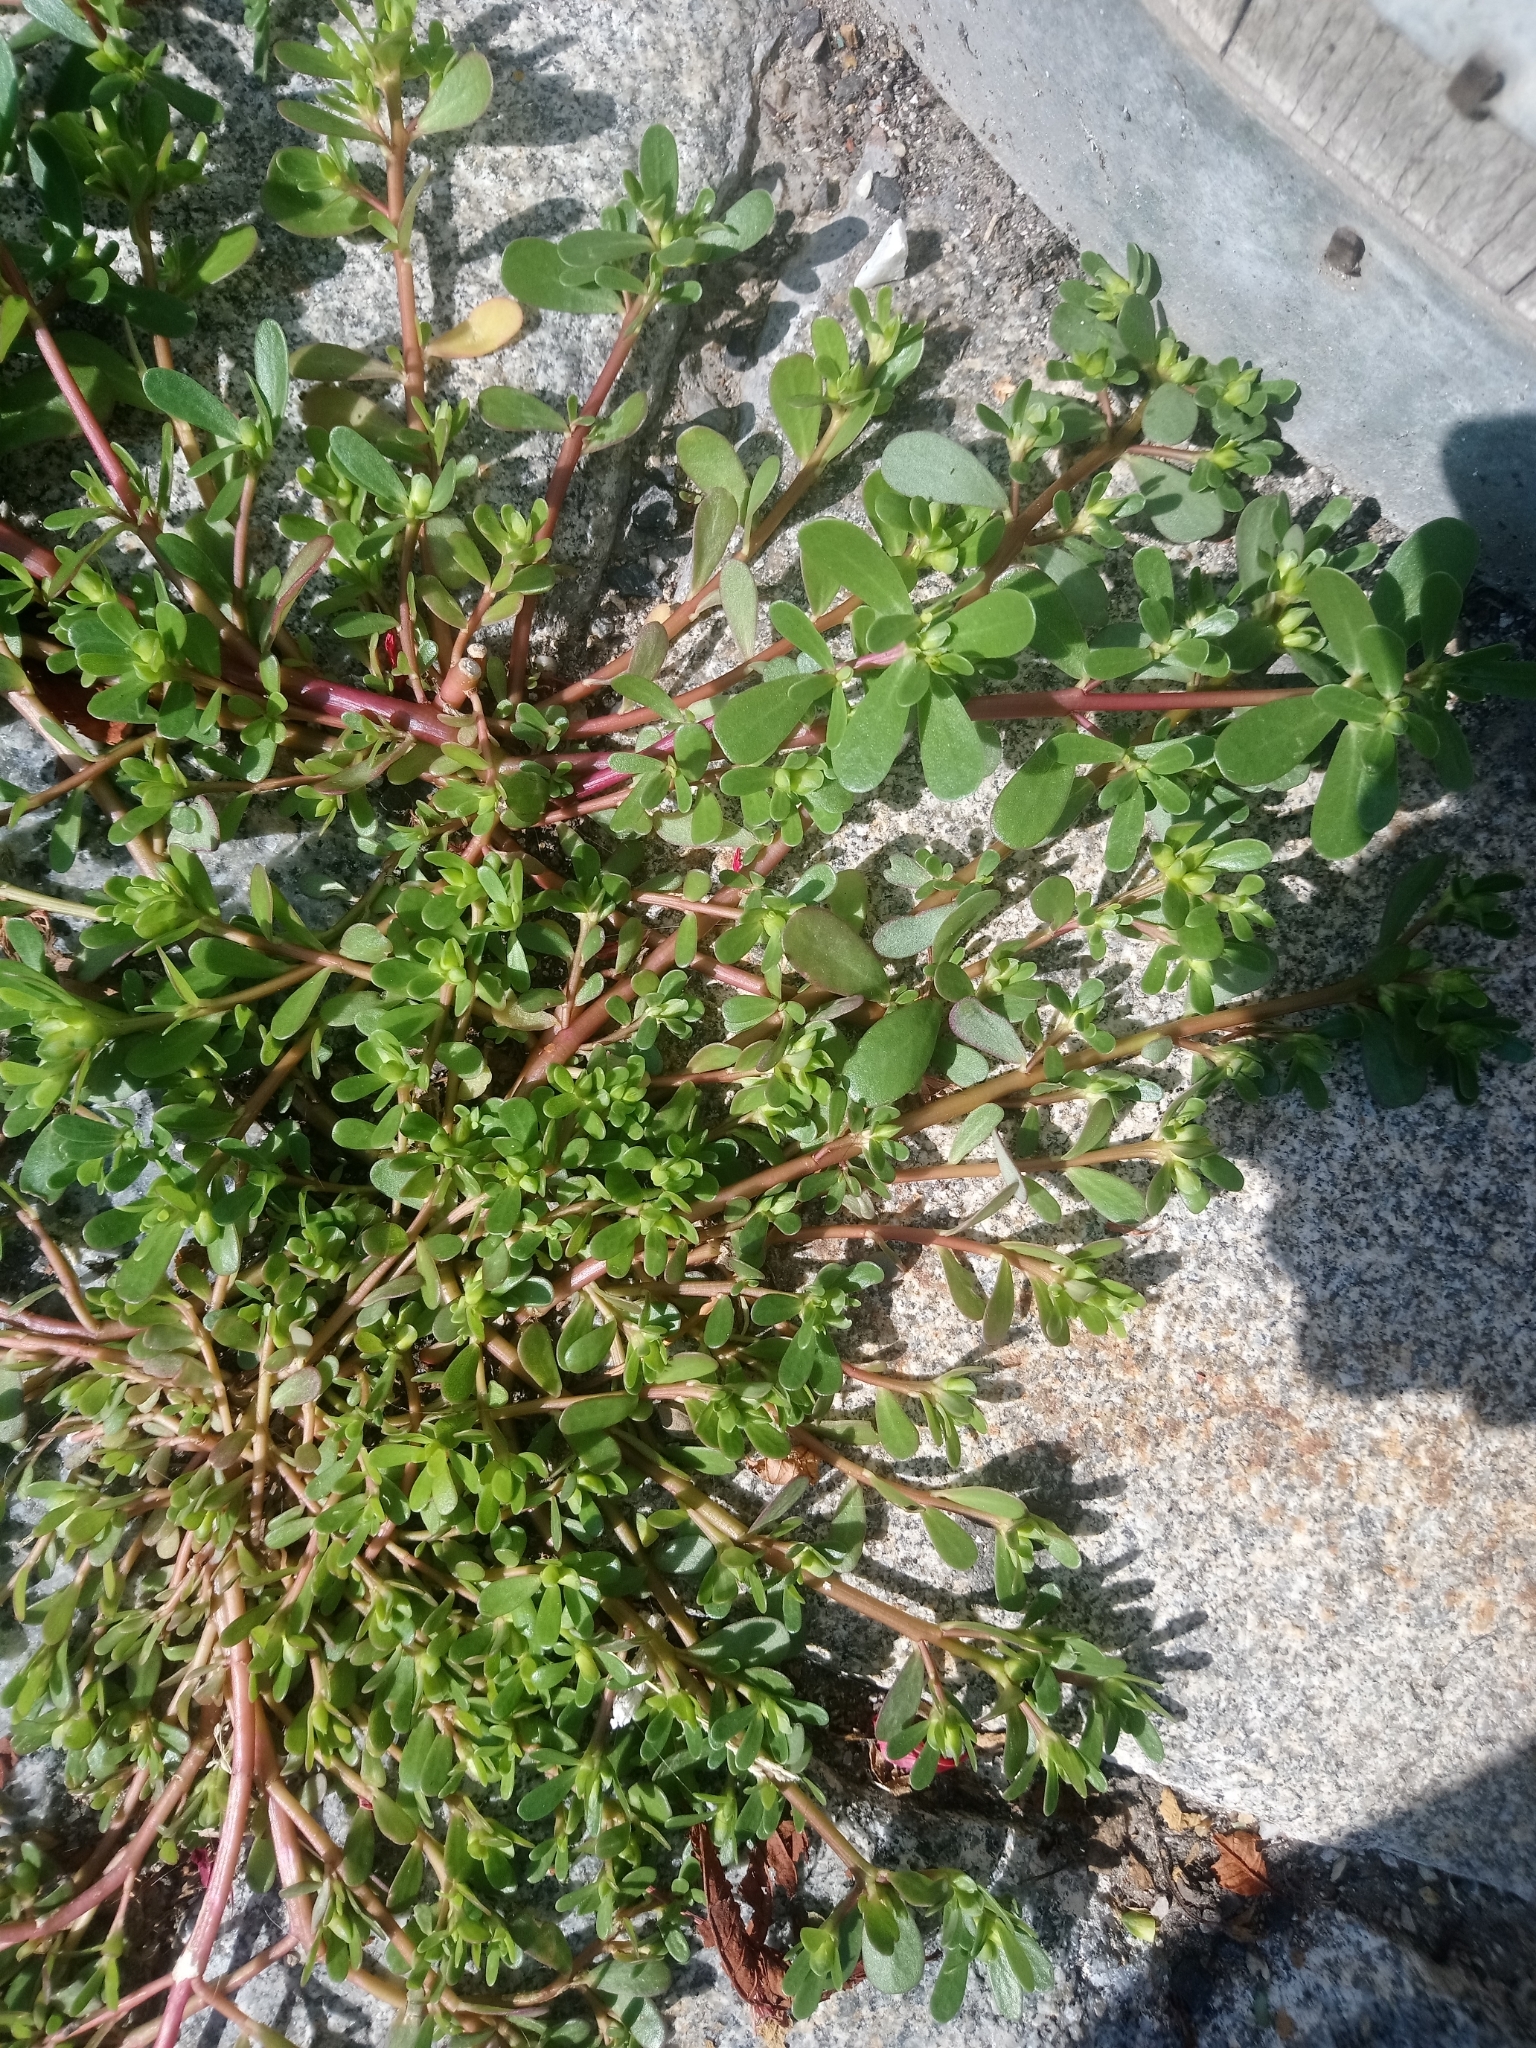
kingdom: Plantae
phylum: Tracheophyta
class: Magnoliopsida
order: Caryophyllales
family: Portulacaceae
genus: Portulaca
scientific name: Portulaca oleracea
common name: Common purslane
